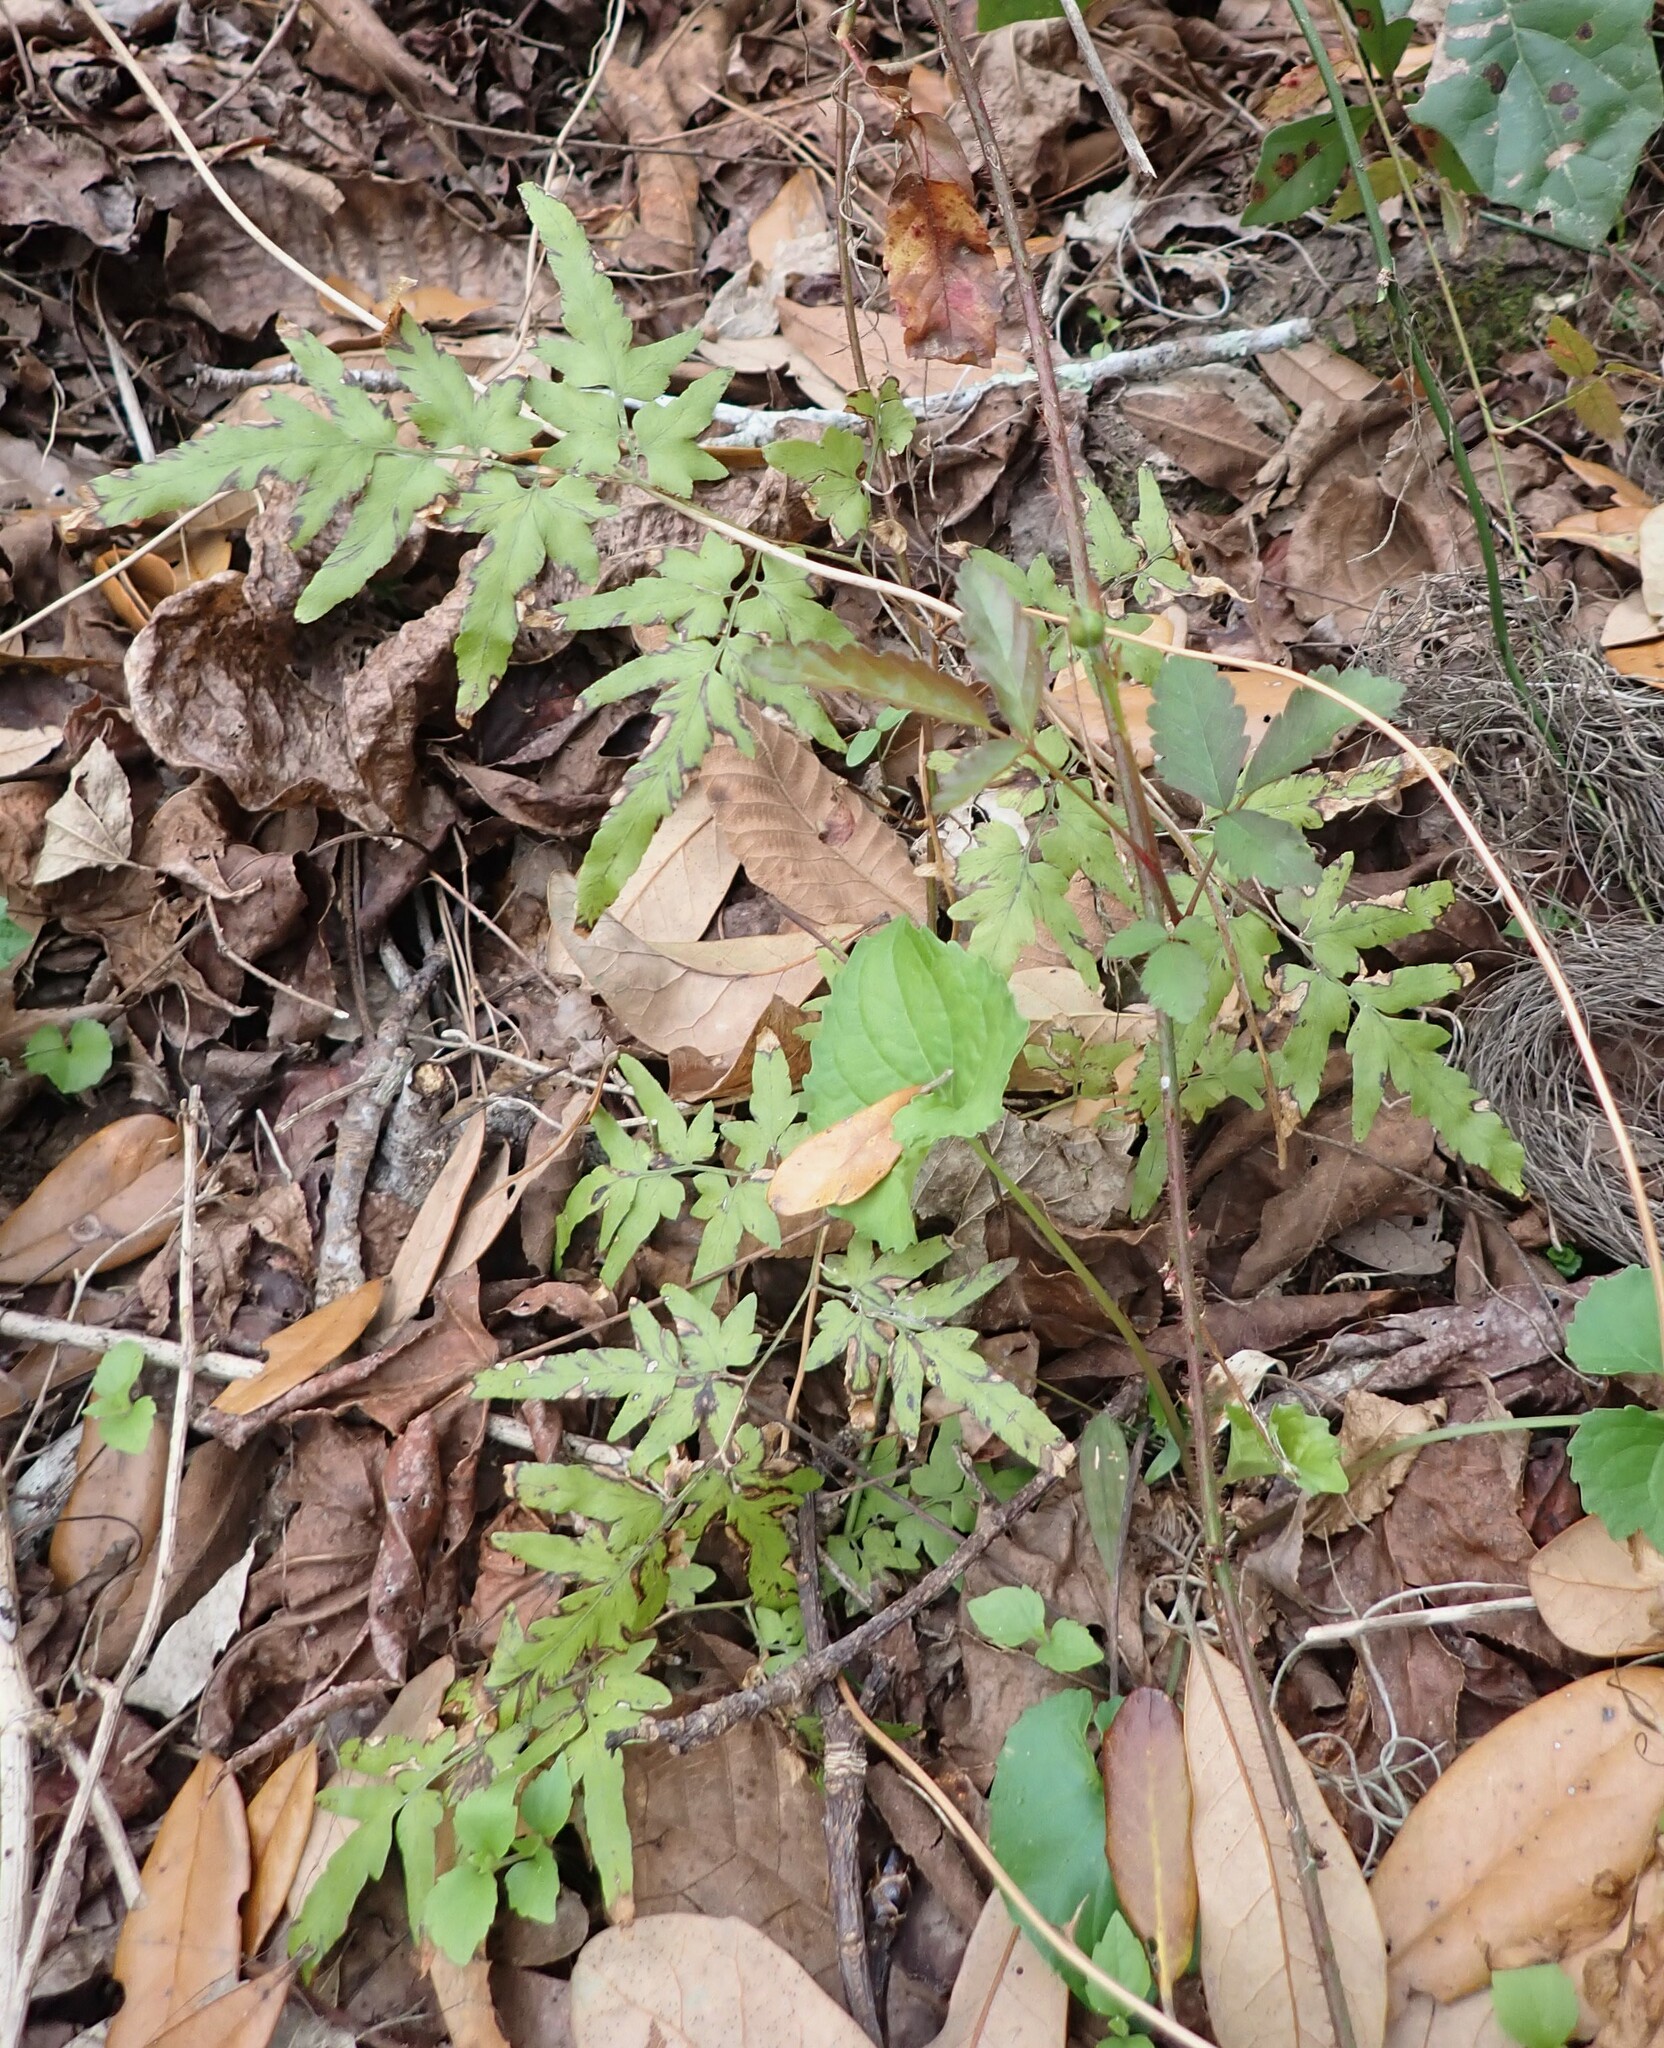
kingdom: Plantae
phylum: Tracheophyta
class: Polypodiopsida
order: Schizaeales
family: Lygodiaceae
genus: Lygodium
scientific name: Lygodium japonicum
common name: Japanese climbing fern
